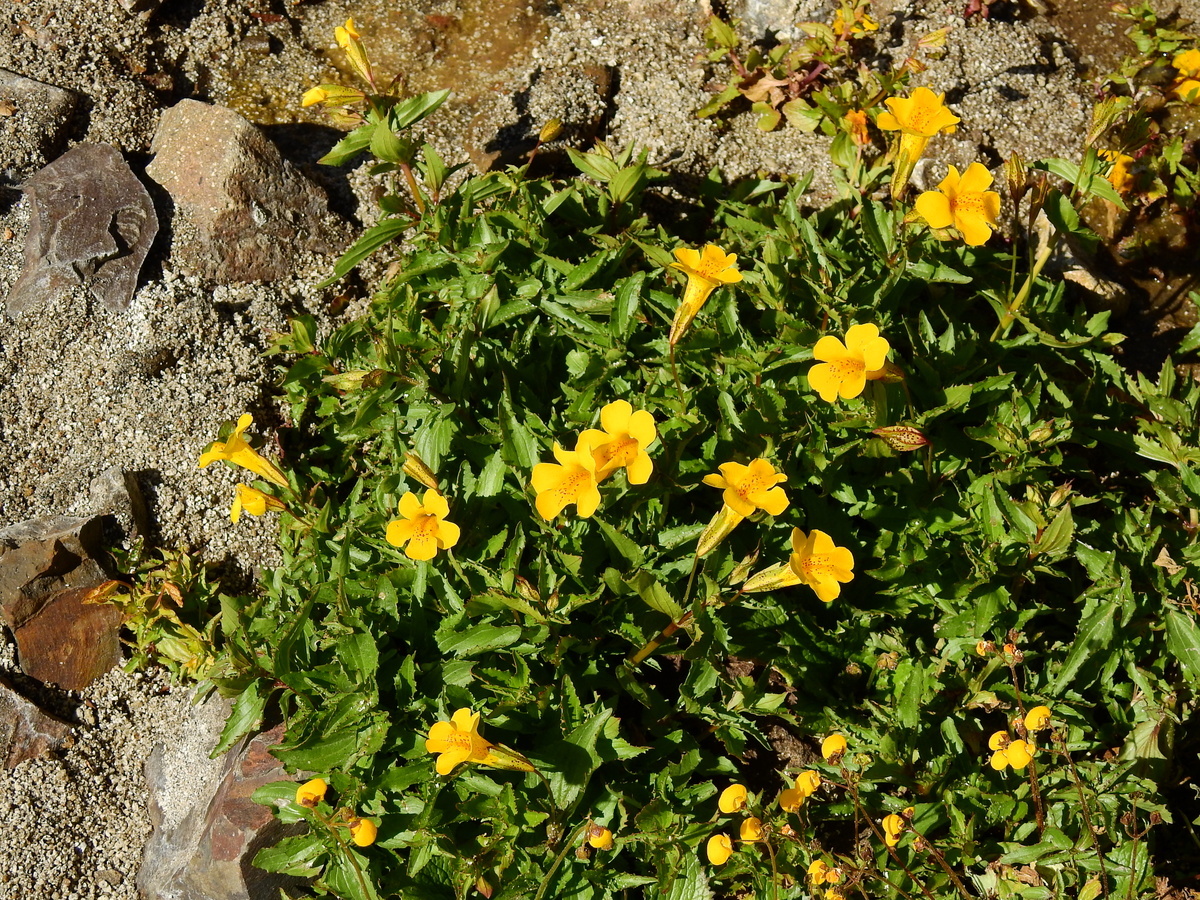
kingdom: Plantae
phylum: Tracheophyta
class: Magnoliopsida
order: Lamiales
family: Phrymaceae
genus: Erythranthe
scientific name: Erythranthe lutea
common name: Yellow monkey-flower
